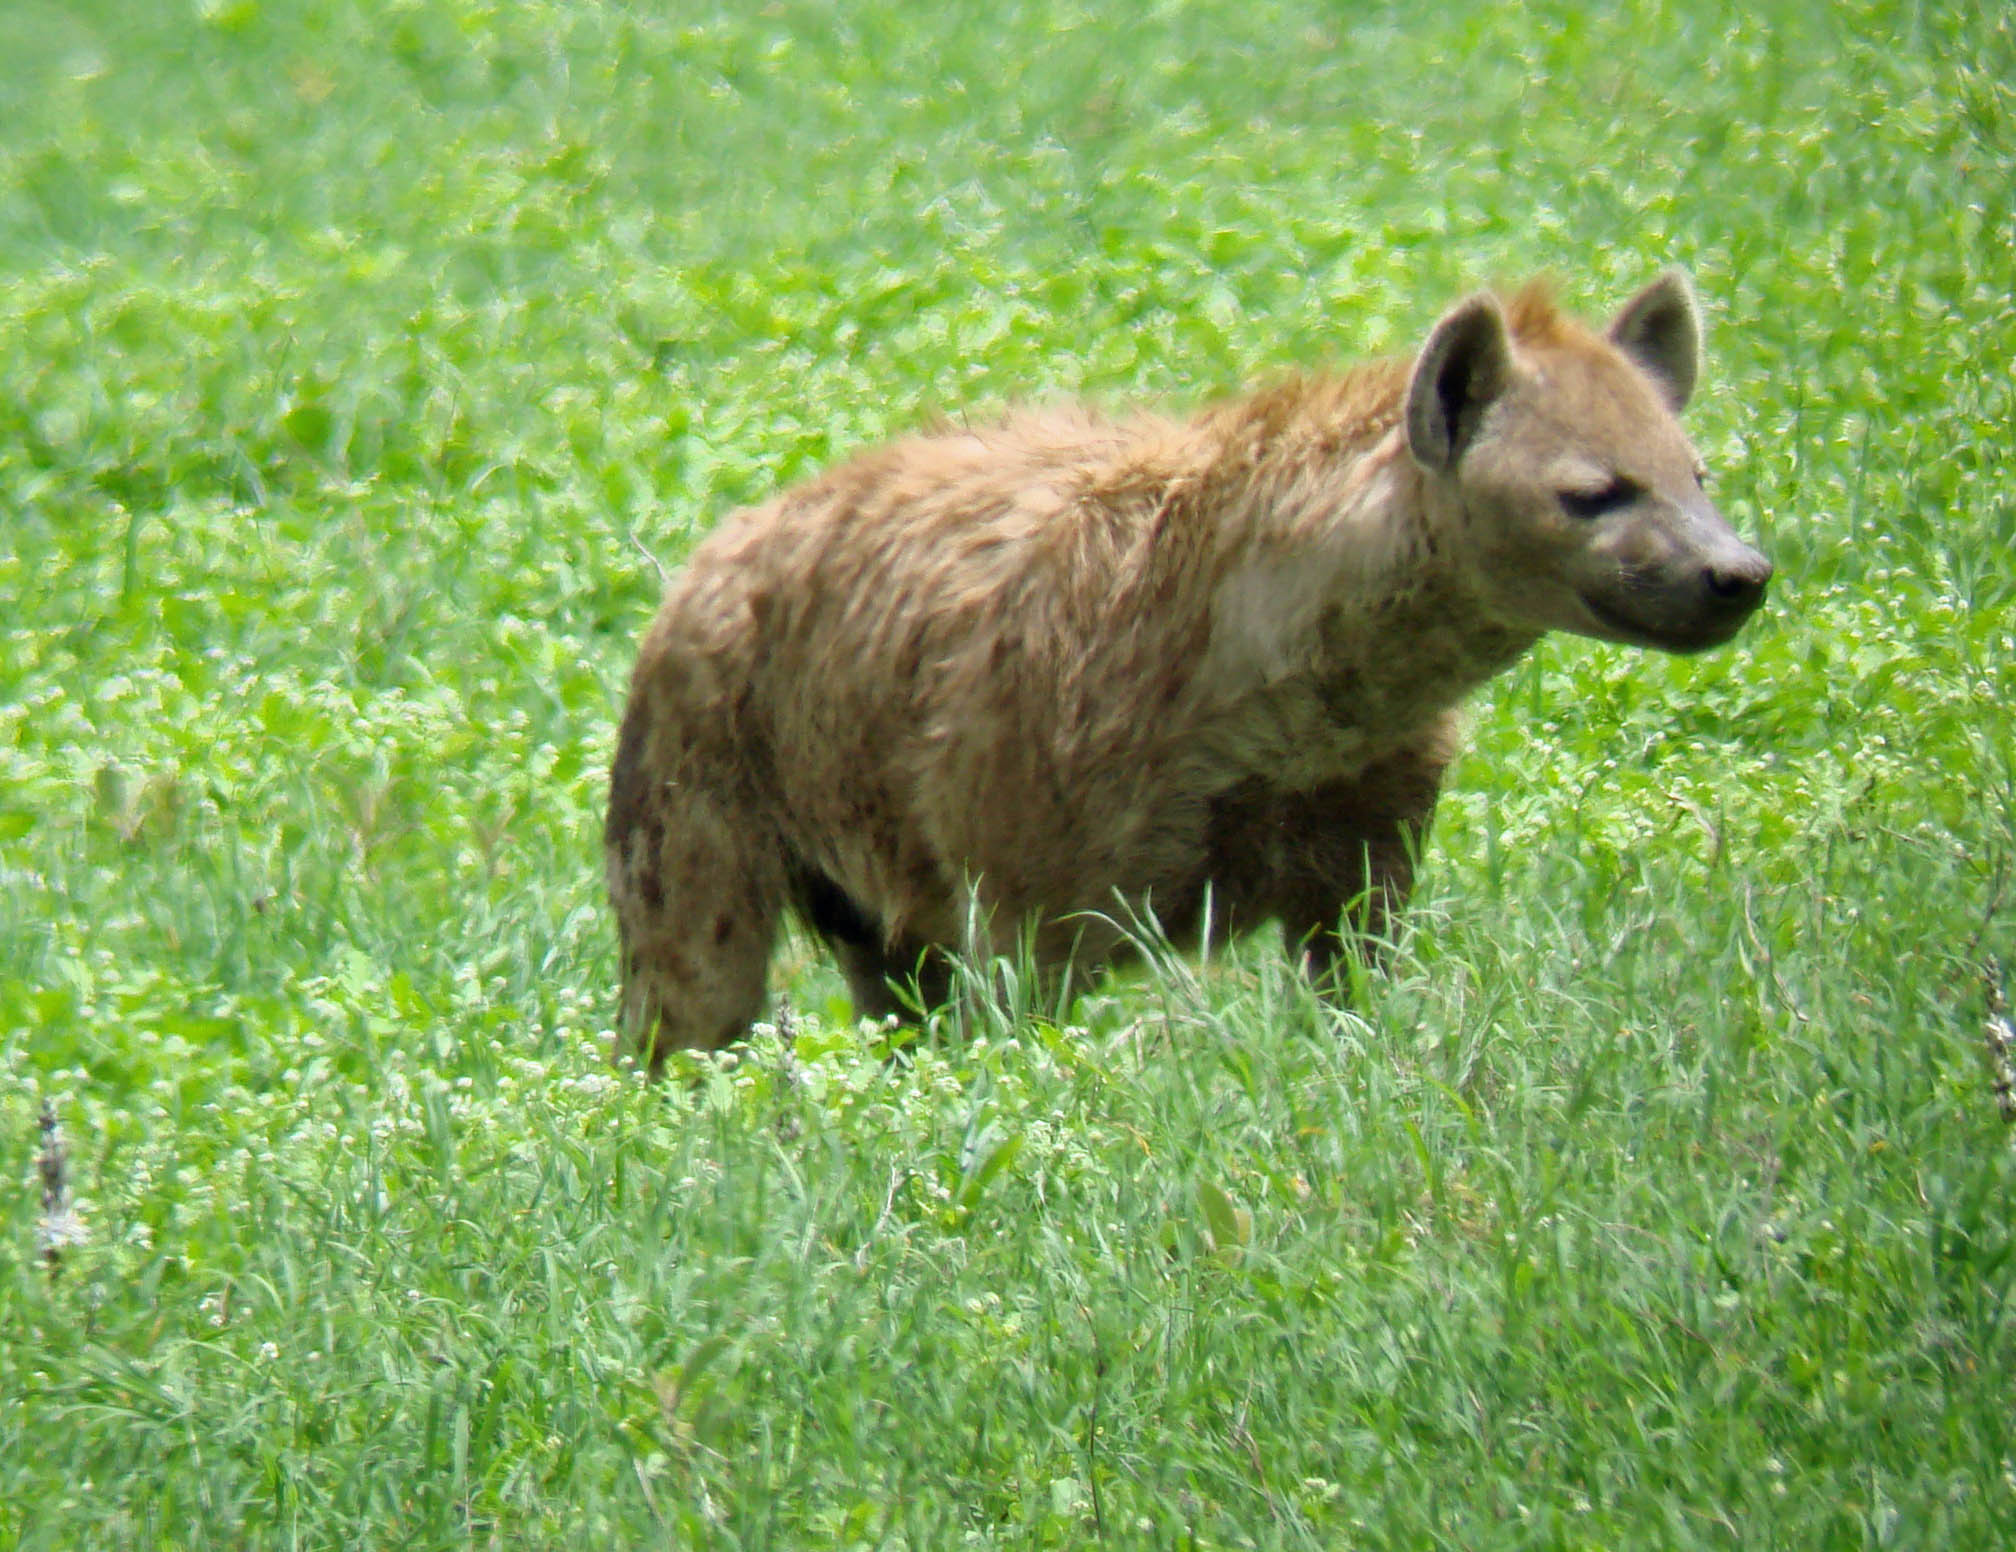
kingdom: Animalia
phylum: Chordata
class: Mammalia
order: Carnivora
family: Hyaenidae
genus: Crocuta
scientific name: Crocuta crocuta
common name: Spotted hyaena
